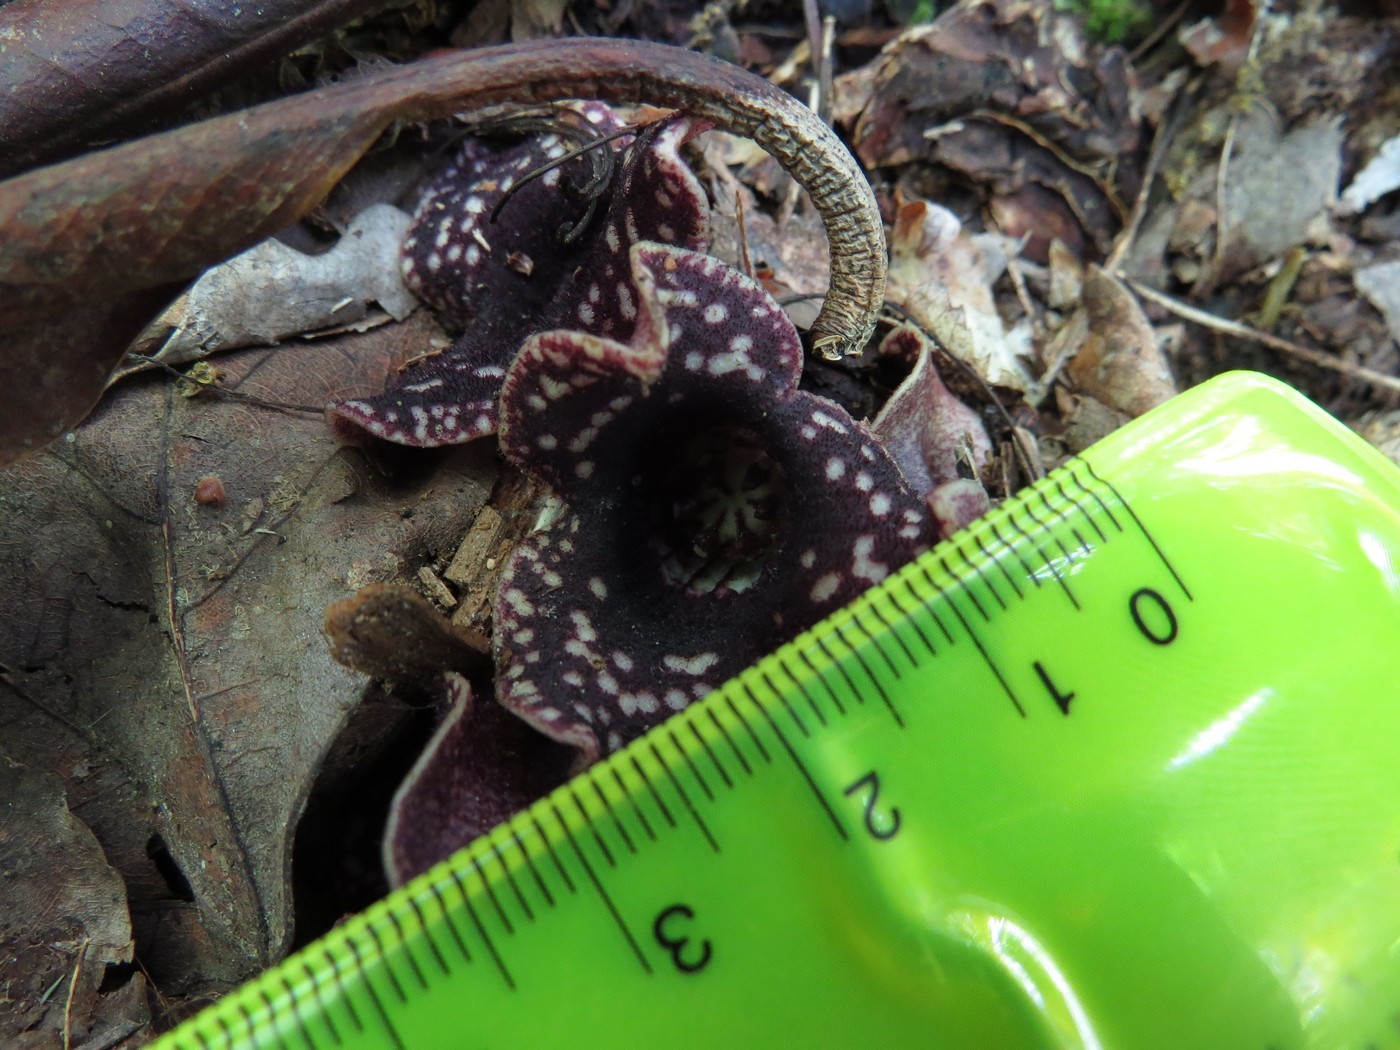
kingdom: Plantae
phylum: Tracheophyta
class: Magnoliopsida
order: Piperales
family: Aristolochiaceae
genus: Hexastylis
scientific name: Hexastylis heterophylla
